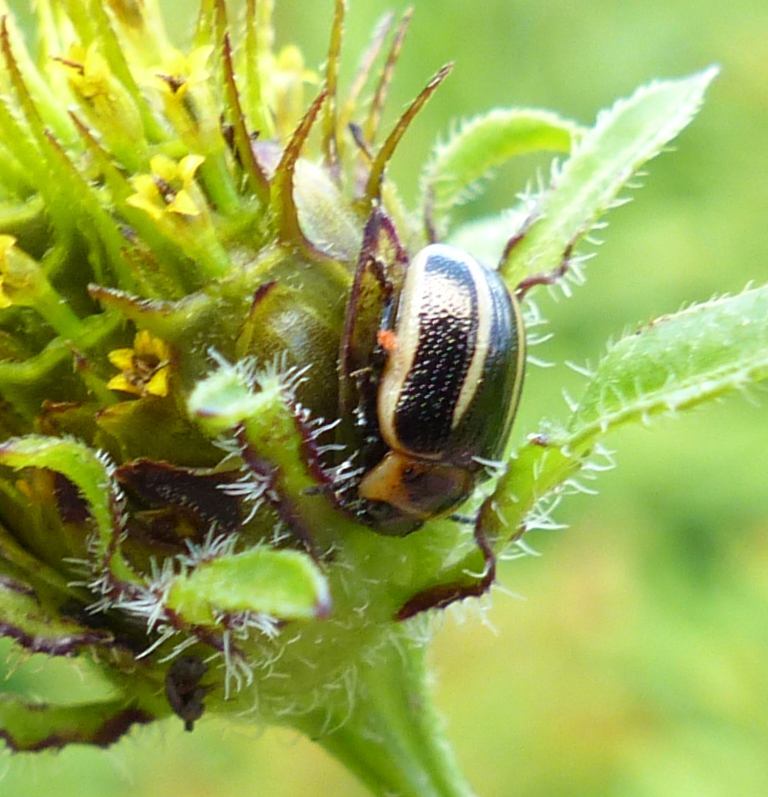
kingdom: Animalia
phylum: Arthropoda
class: Insecta
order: Coleoptera
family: Chrysomelidae
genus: Calligrapha
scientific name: Calligrapha californica
